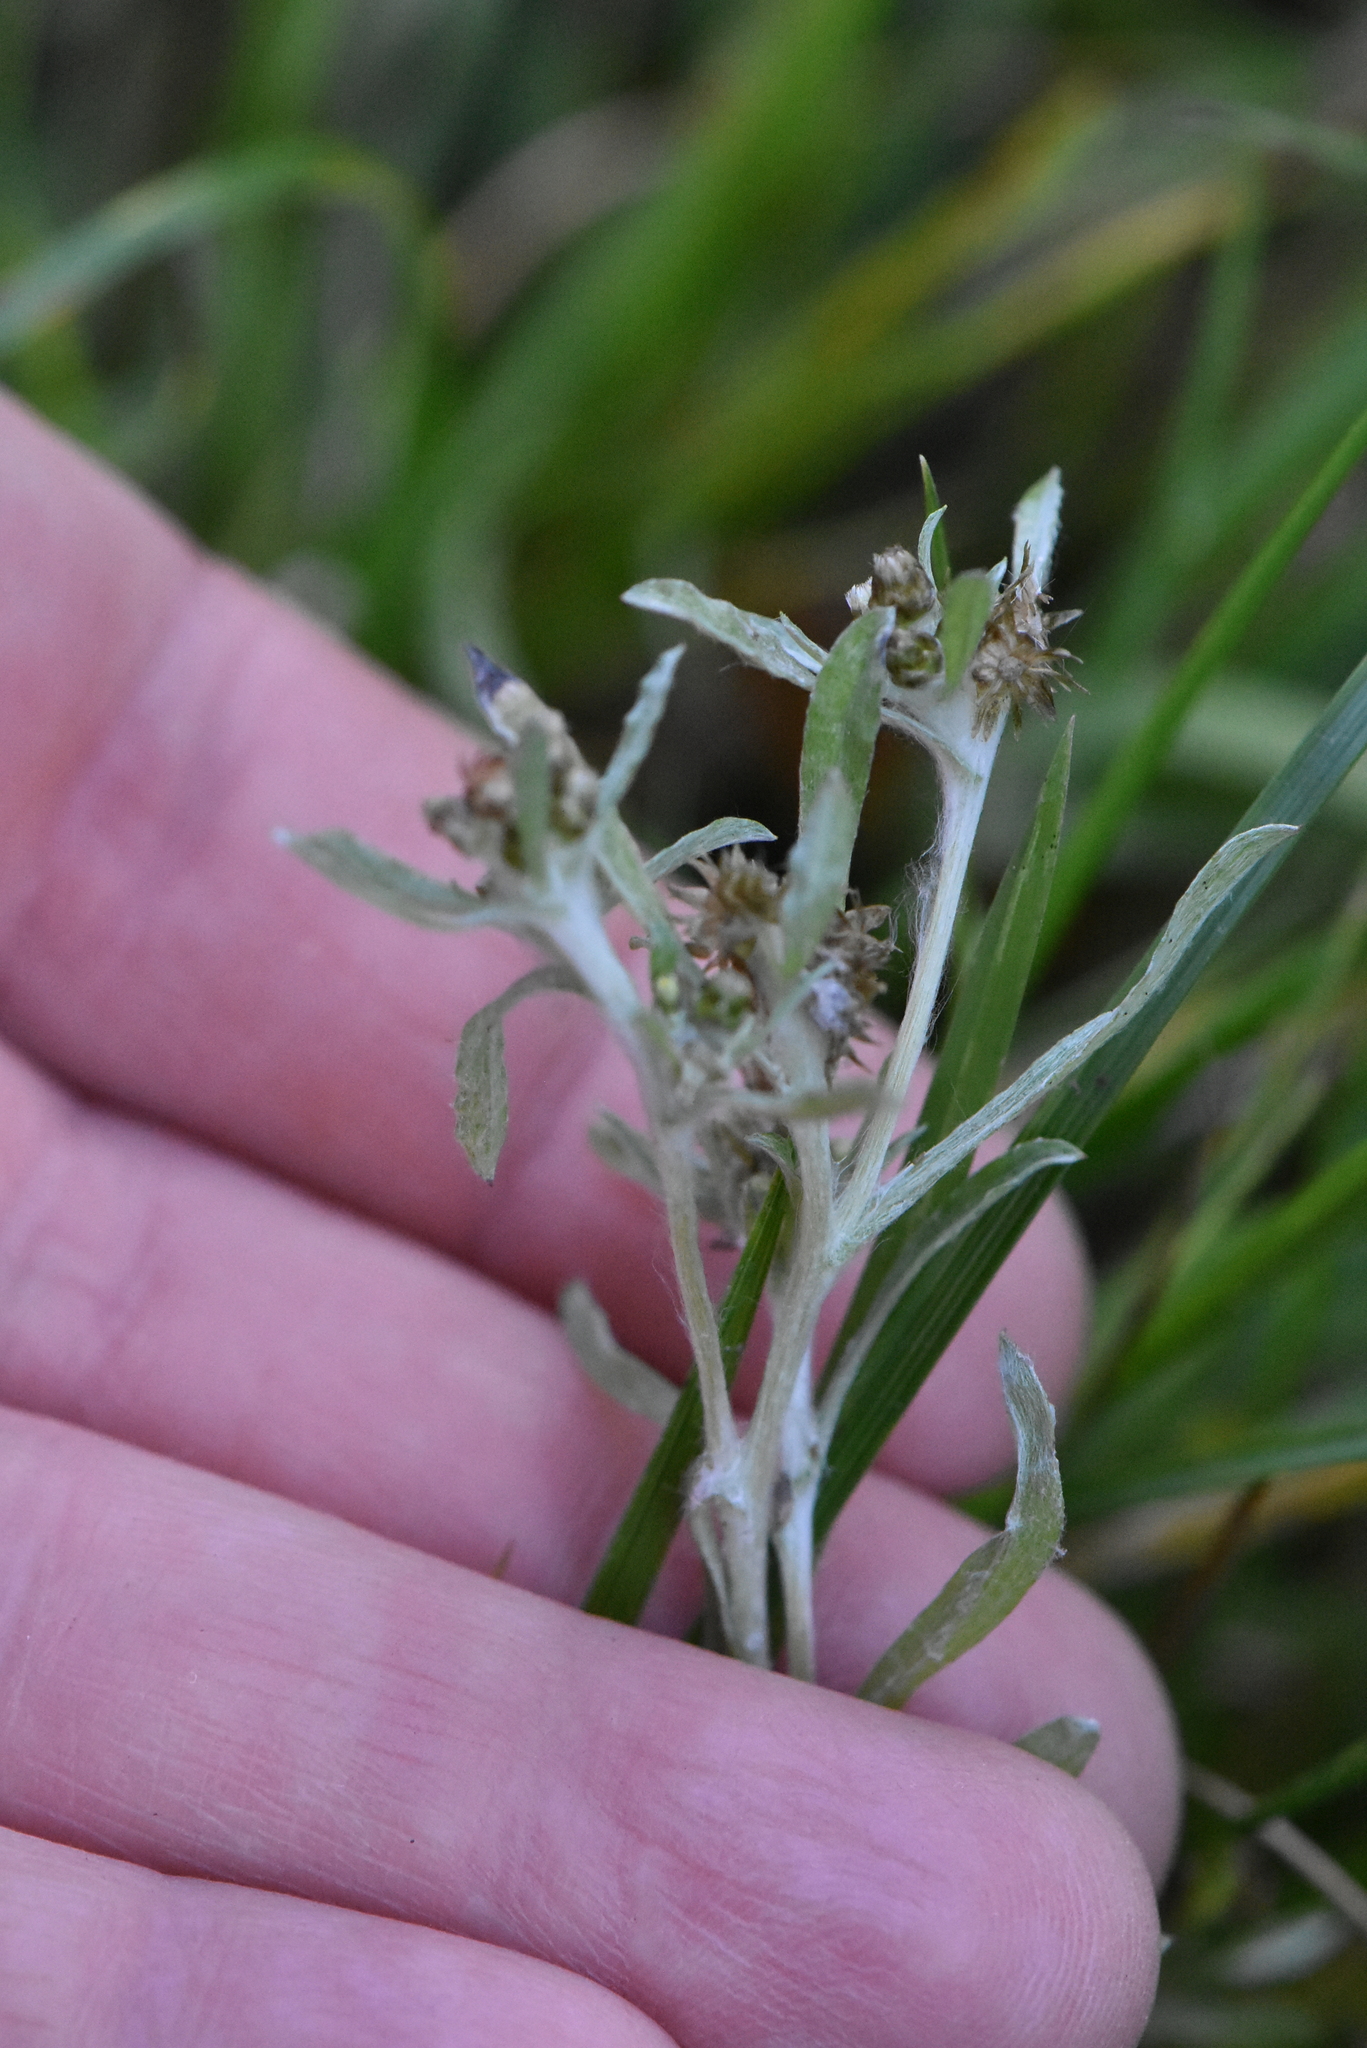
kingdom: Plantae
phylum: Tracheophyta
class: Magnoliopsida
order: Asterales
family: Asteraceae
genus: Gnaphalium
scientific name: Gnaphalium uliginosum
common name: Marsh cudweed
